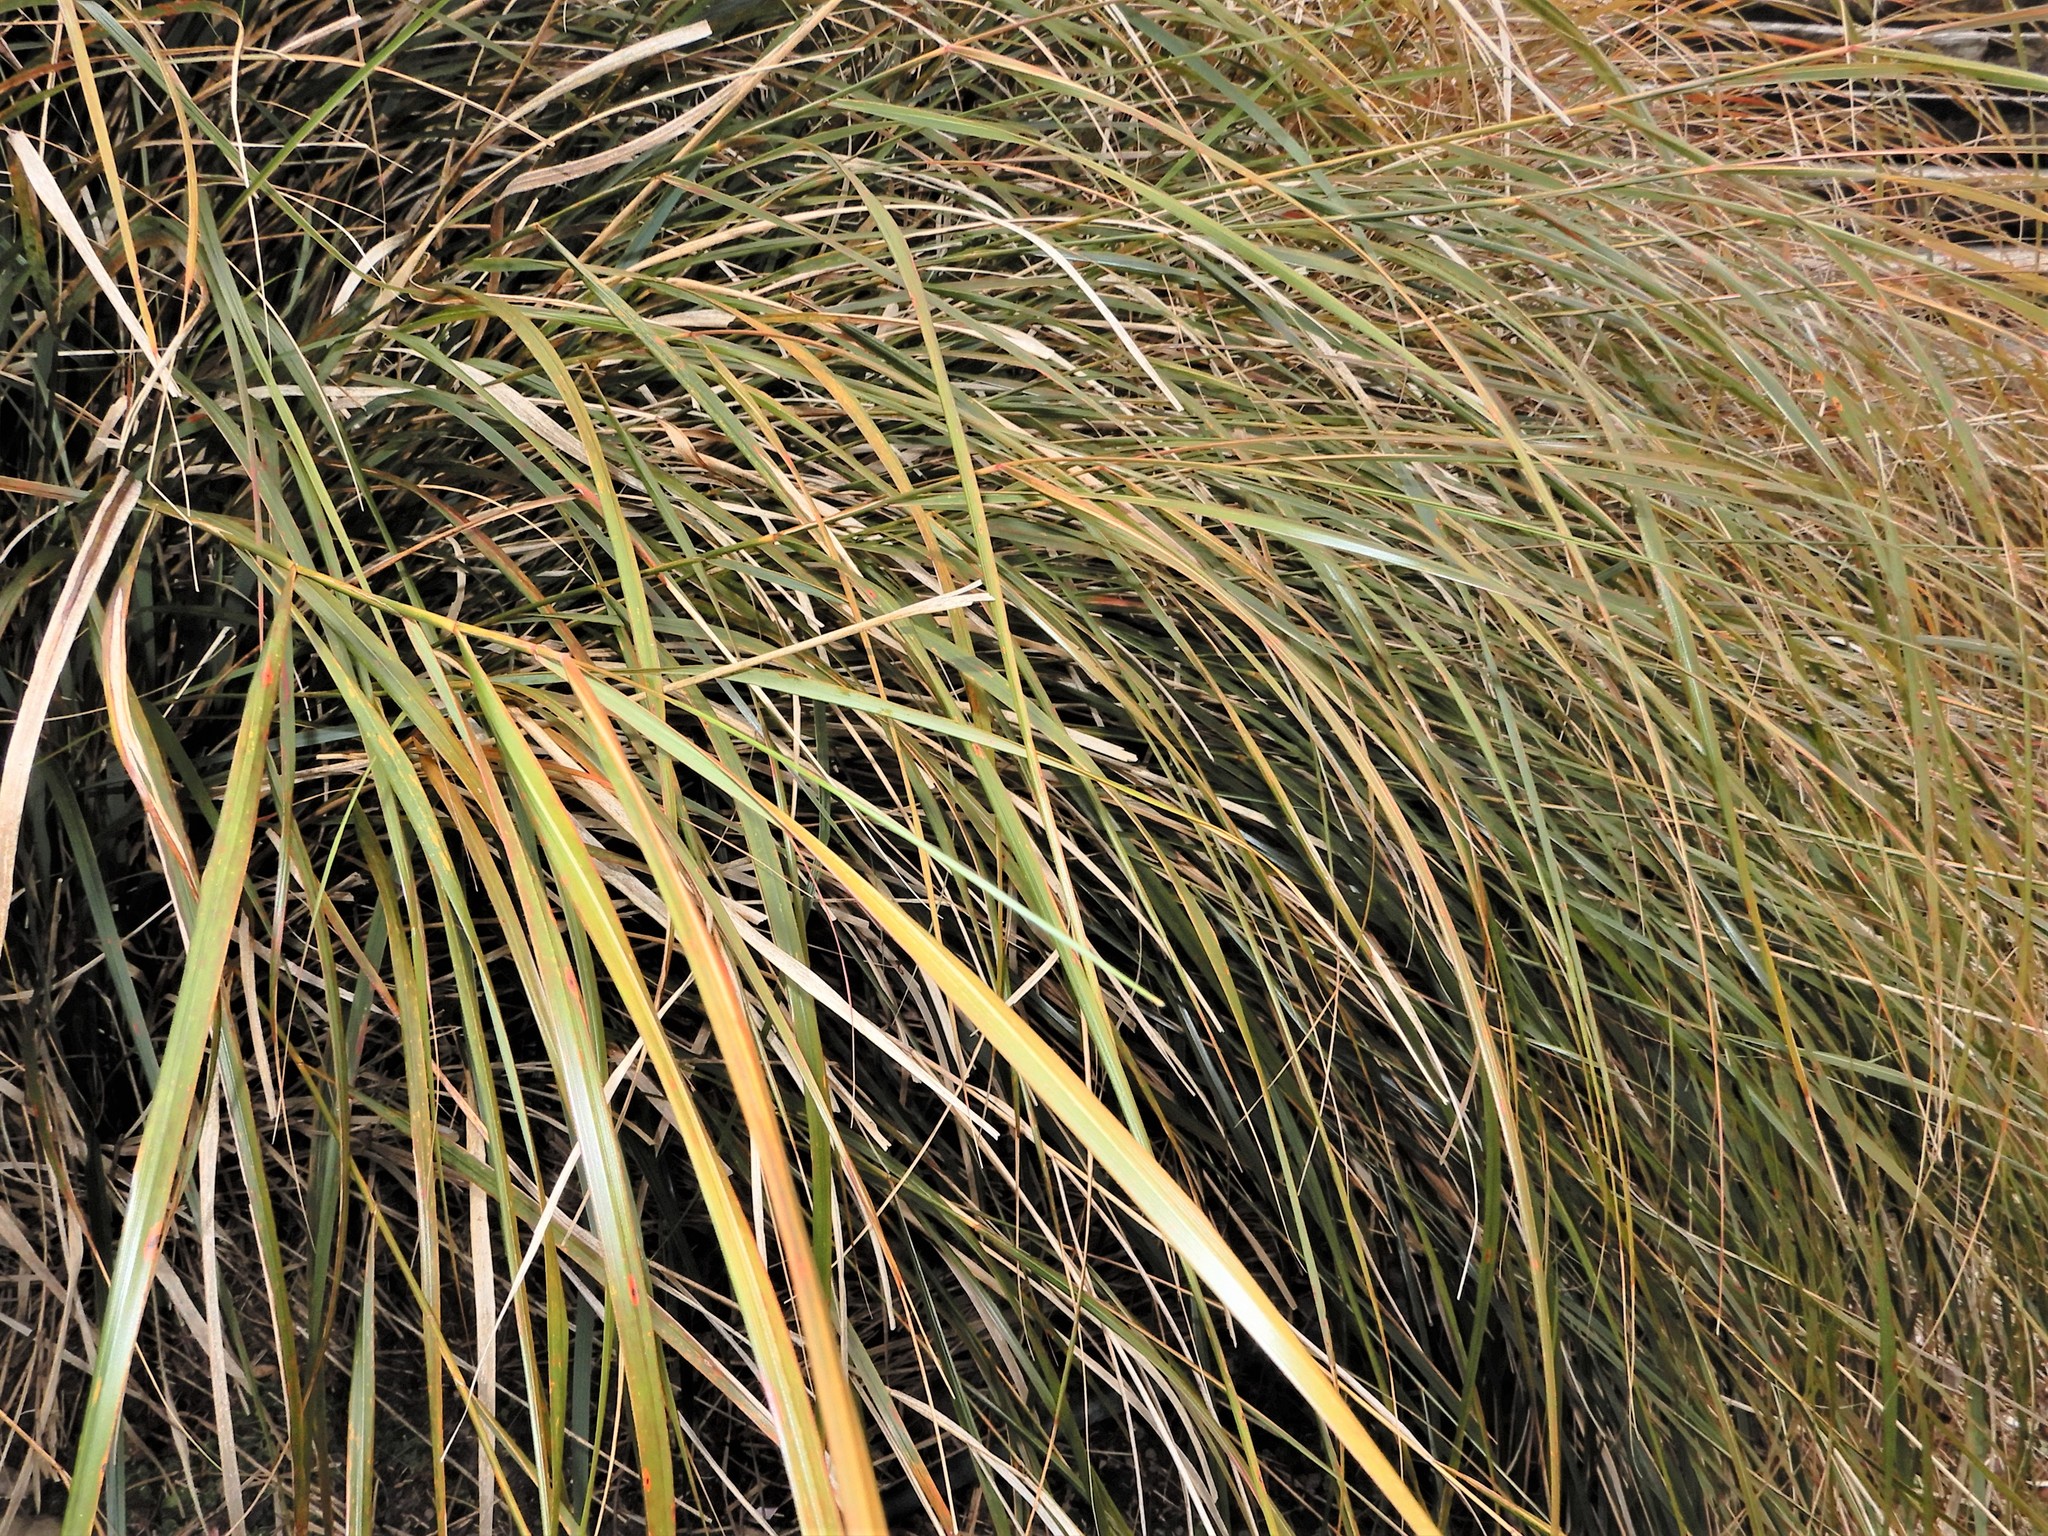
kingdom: Plantae
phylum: Tracheophyta
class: Liliopsida
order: Poales
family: Poaceae
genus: Anemanthele
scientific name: Anemanthele lessoniana
